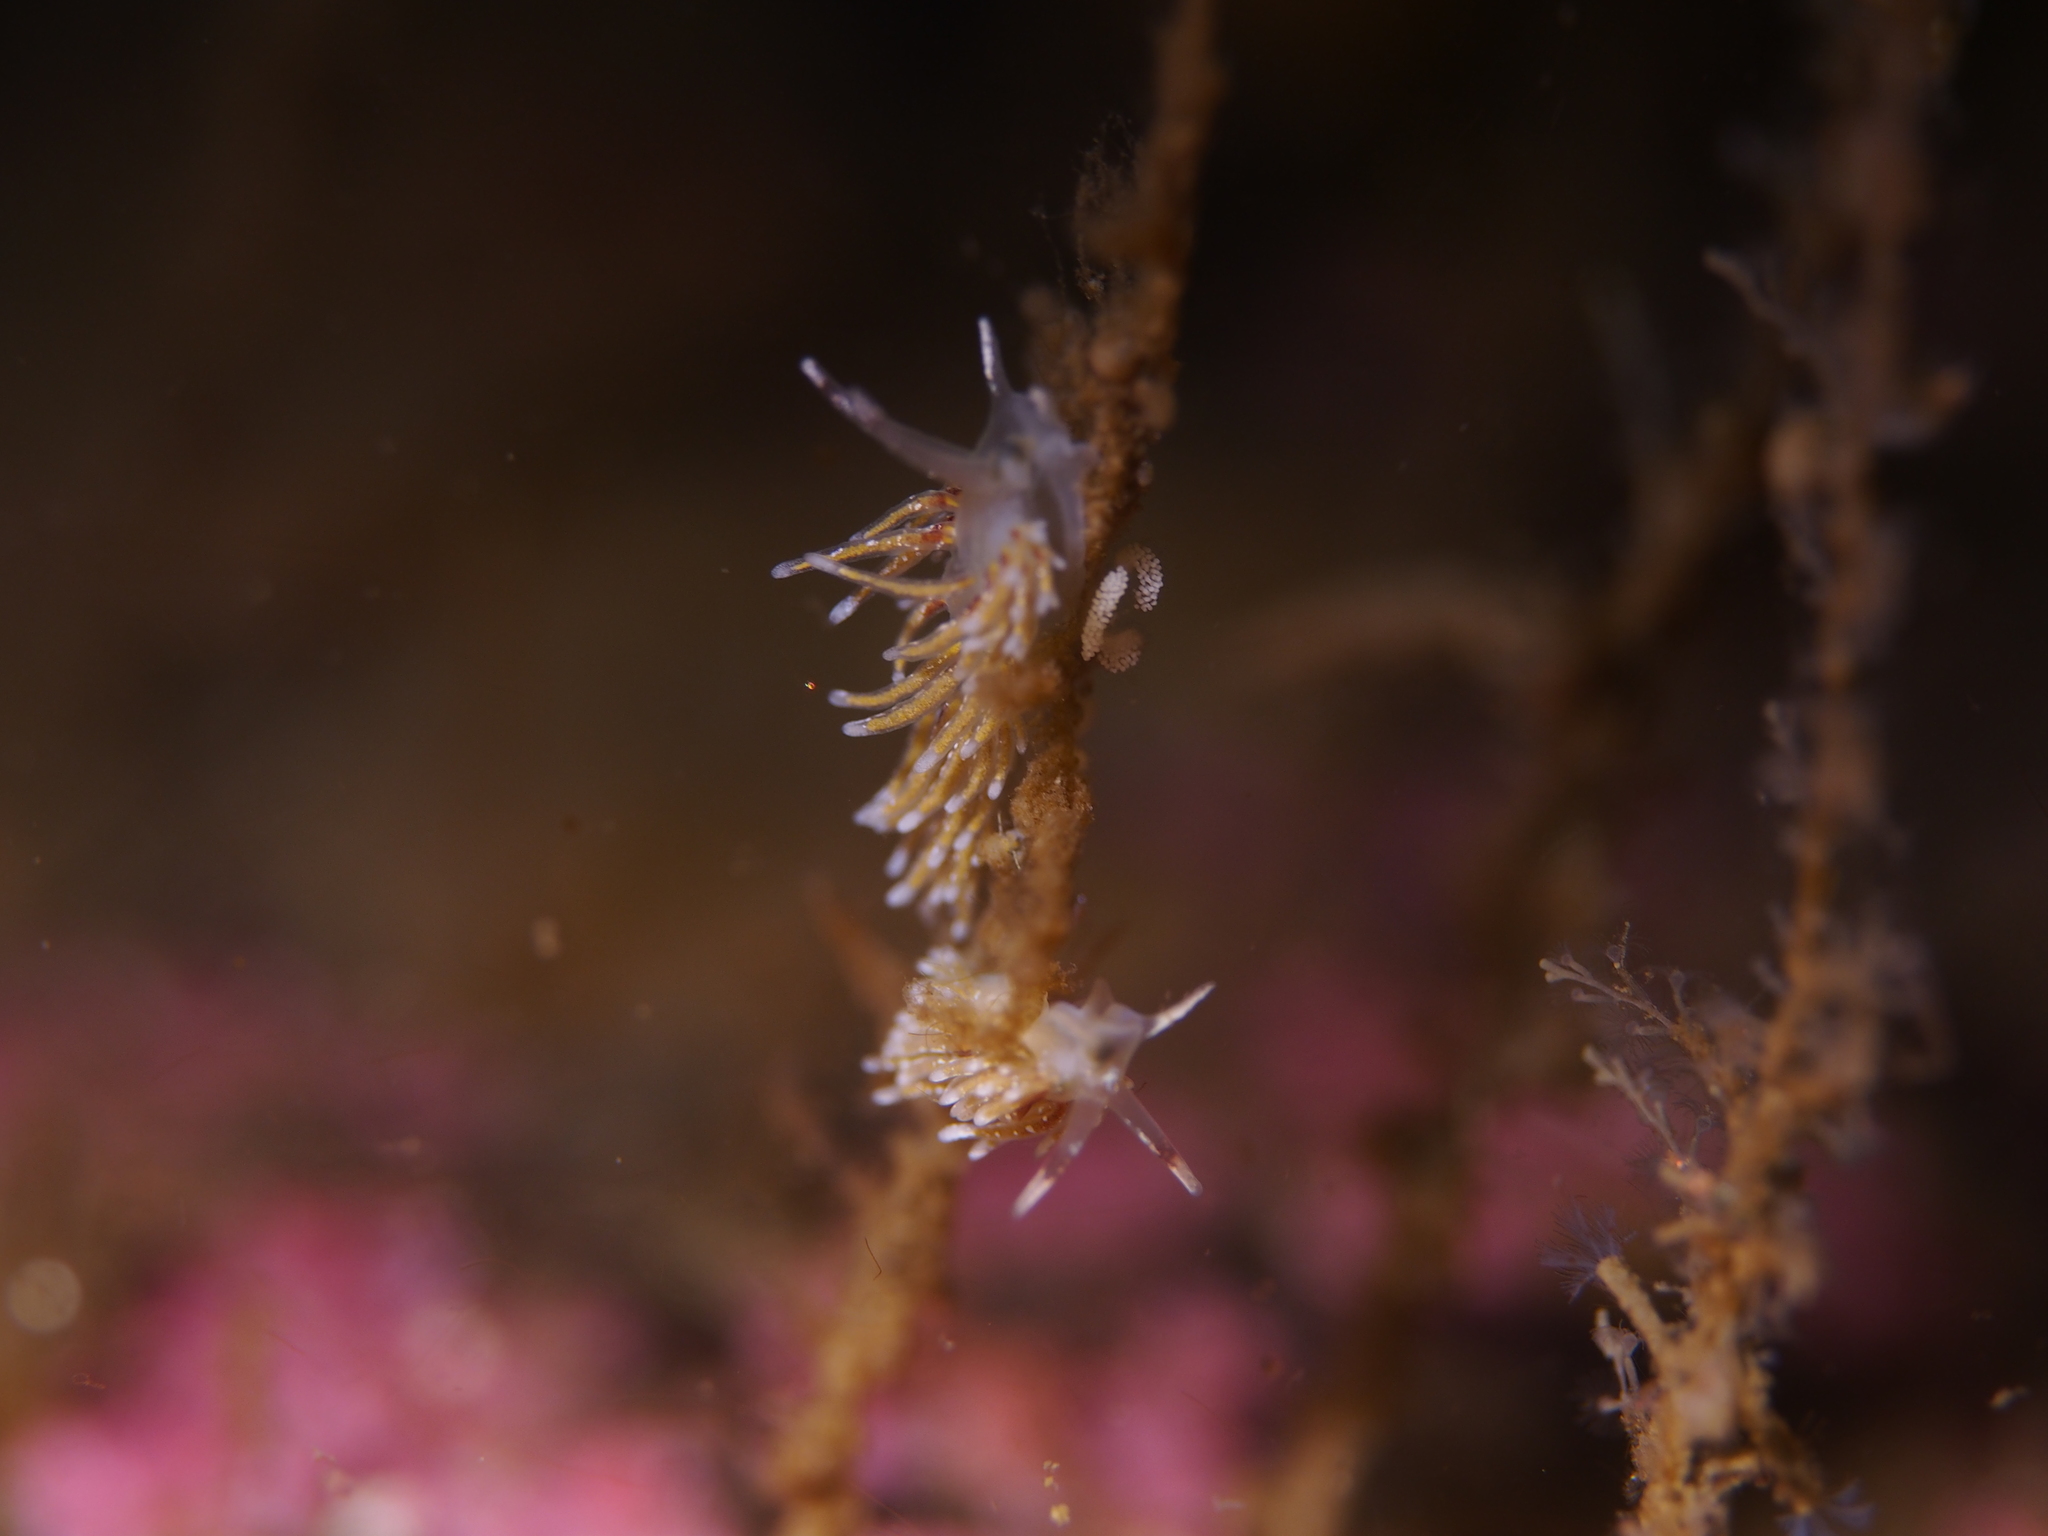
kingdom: Animalia
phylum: Mollusca
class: Gastropoda
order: Nudibranchia
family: Trinchesiidae
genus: Rubramoena
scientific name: Rubramoena rubescens
